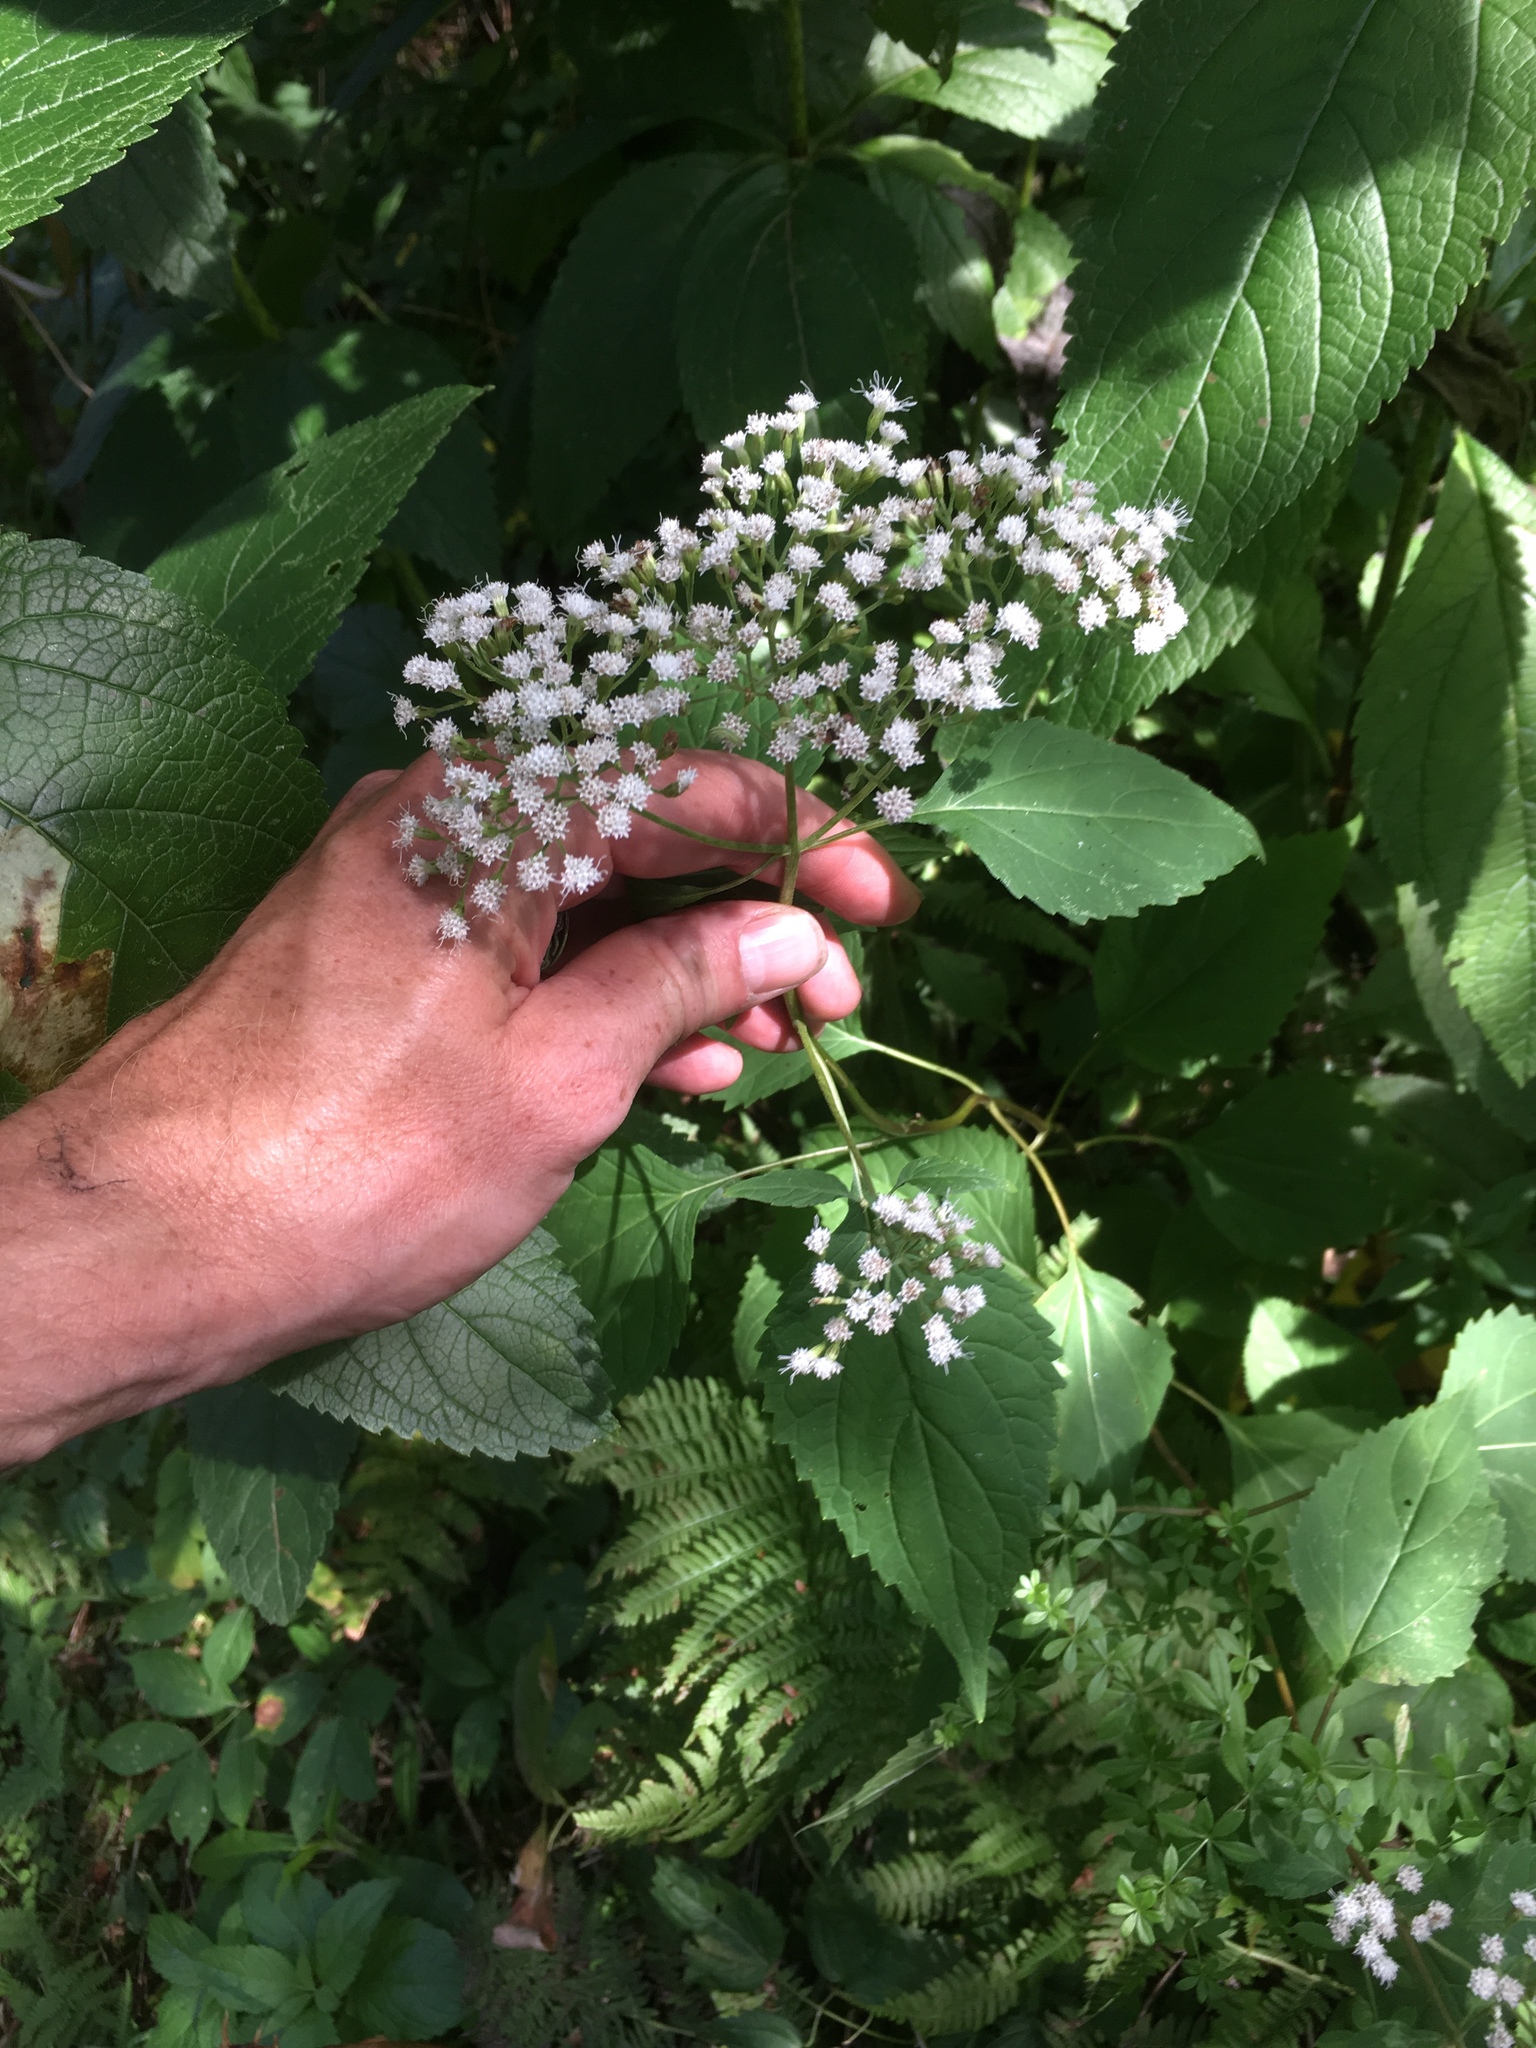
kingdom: Plantae
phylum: Tracheophyta
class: Magnoliopsida
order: Asterales
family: Asteraceae
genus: Ageratina
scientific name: Ageratina altissima
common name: White snakeroot
